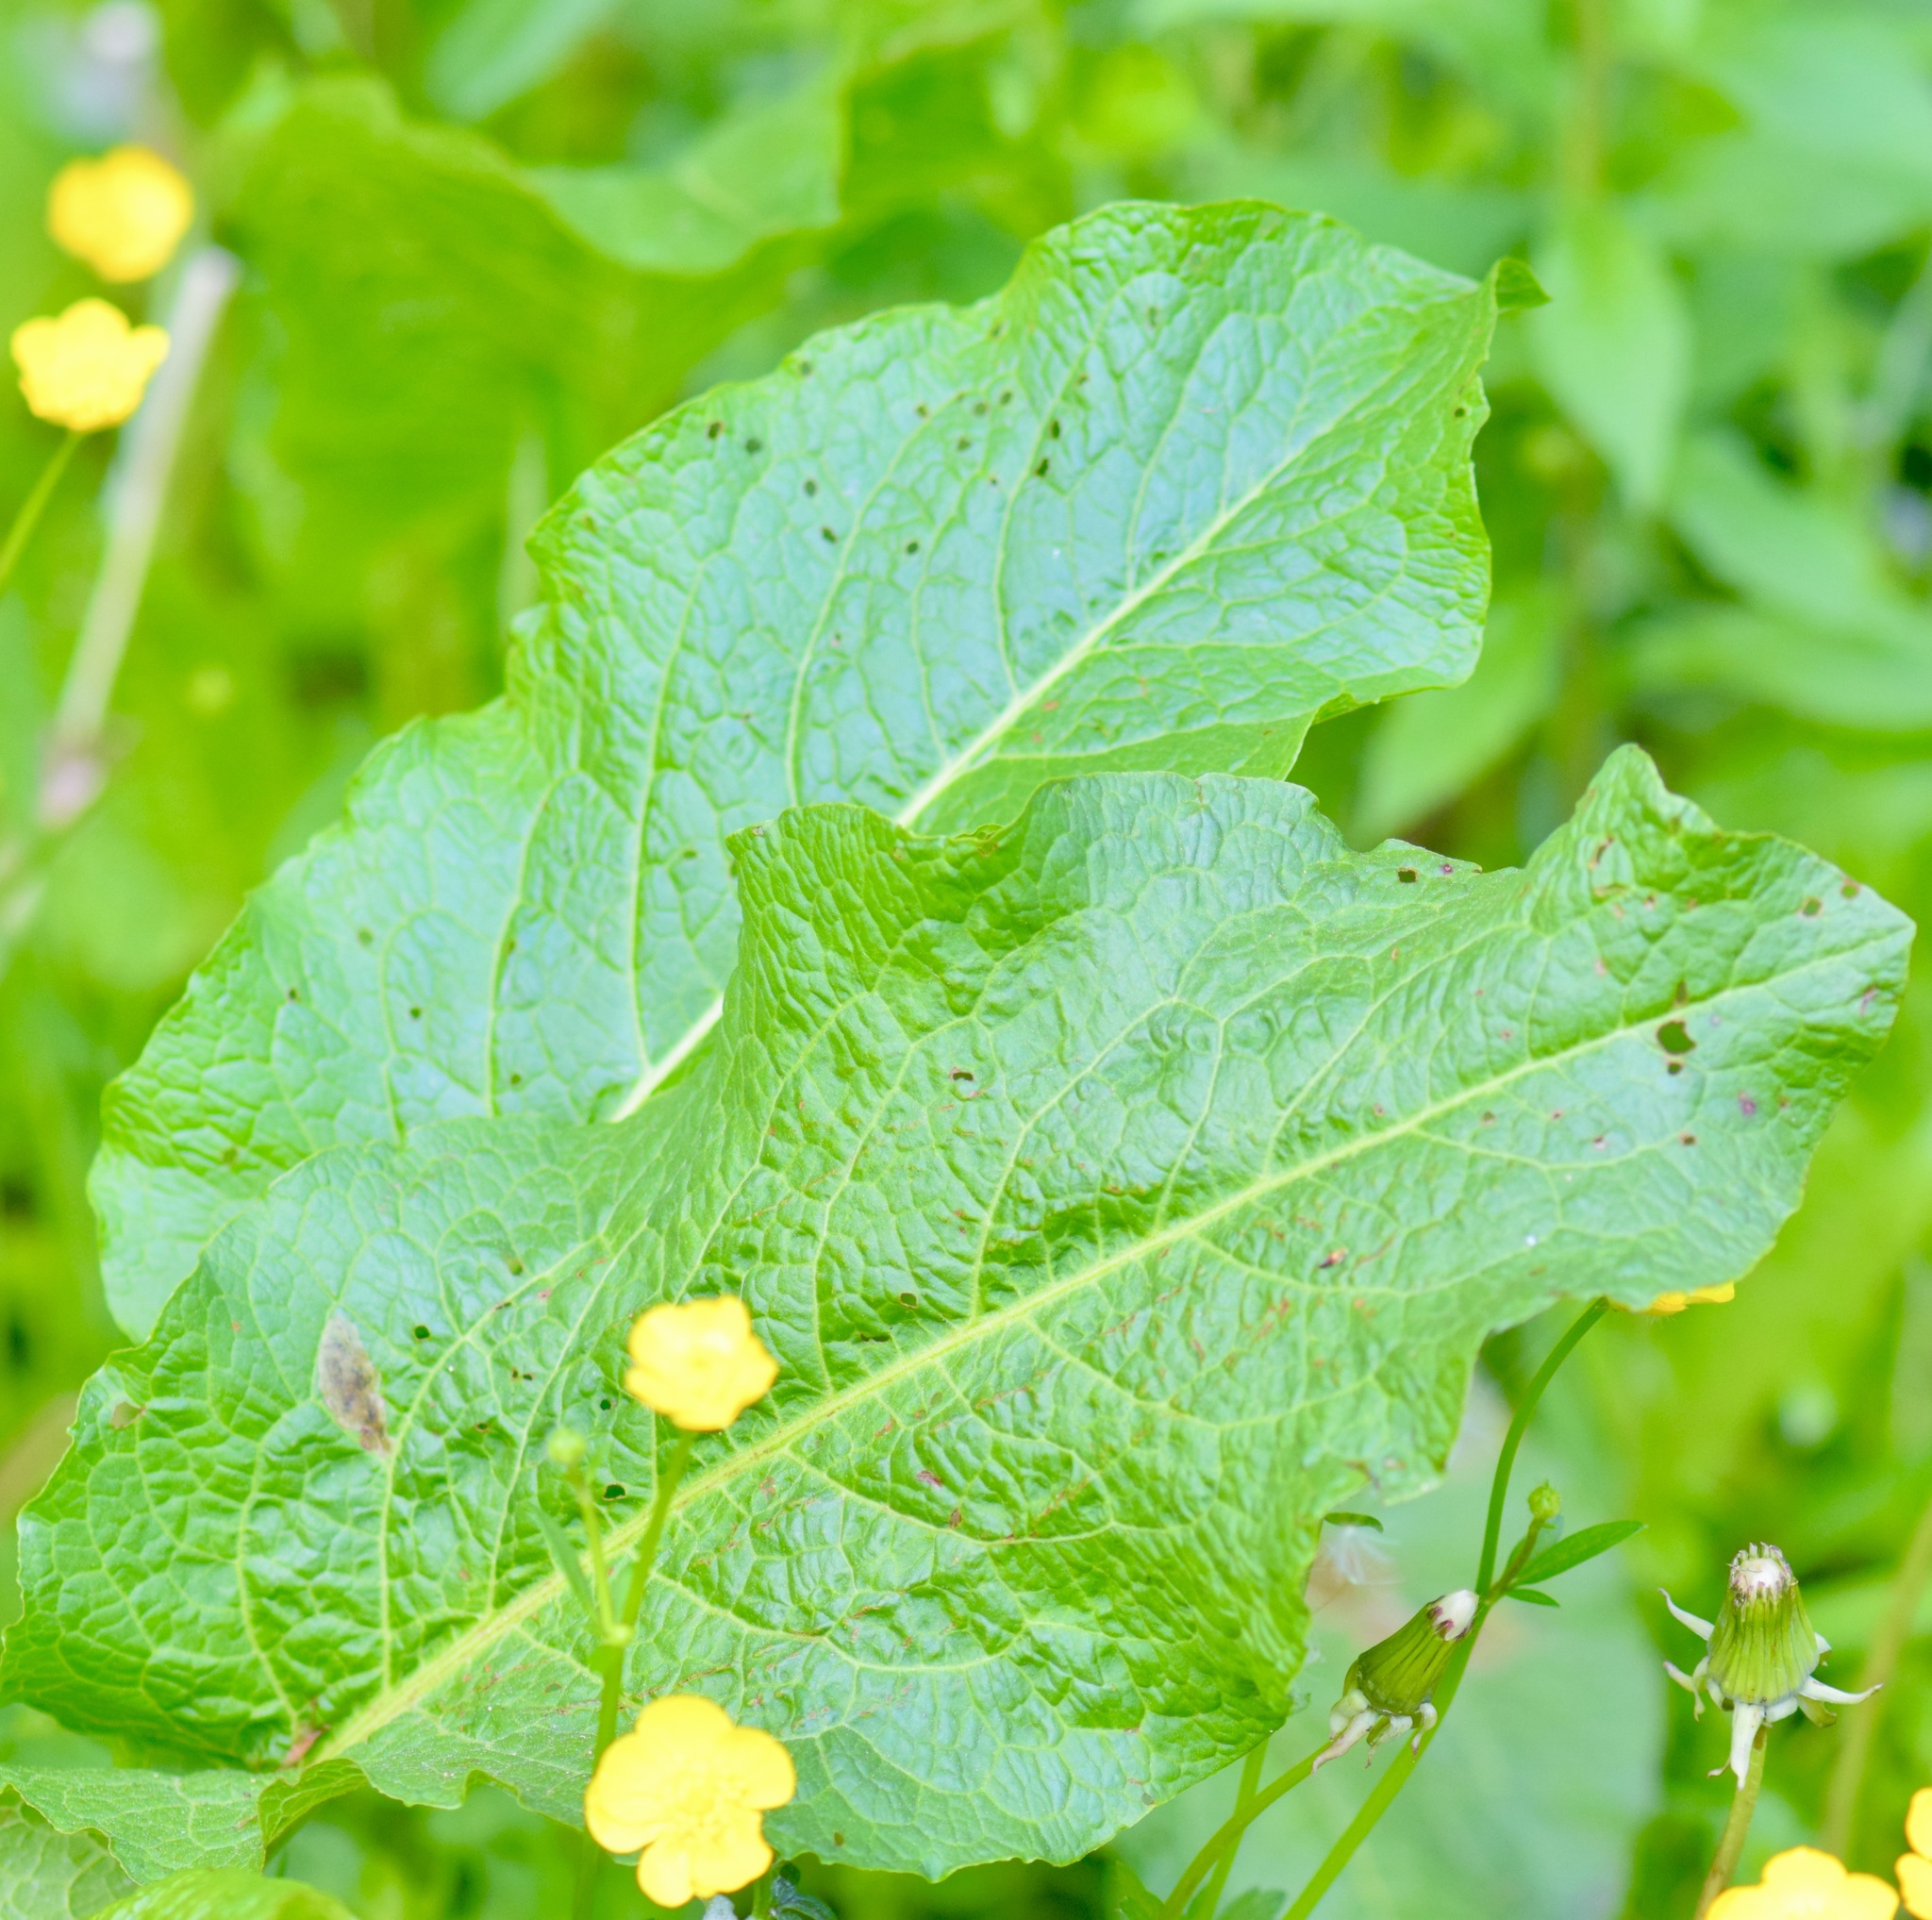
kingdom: Plantae
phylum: Tracheophyta
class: Magnoliopsida
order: Caryophyllales
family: Polygonaceae
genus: Rumex
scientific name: Rumex obtusifolius
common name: Bitter dock
